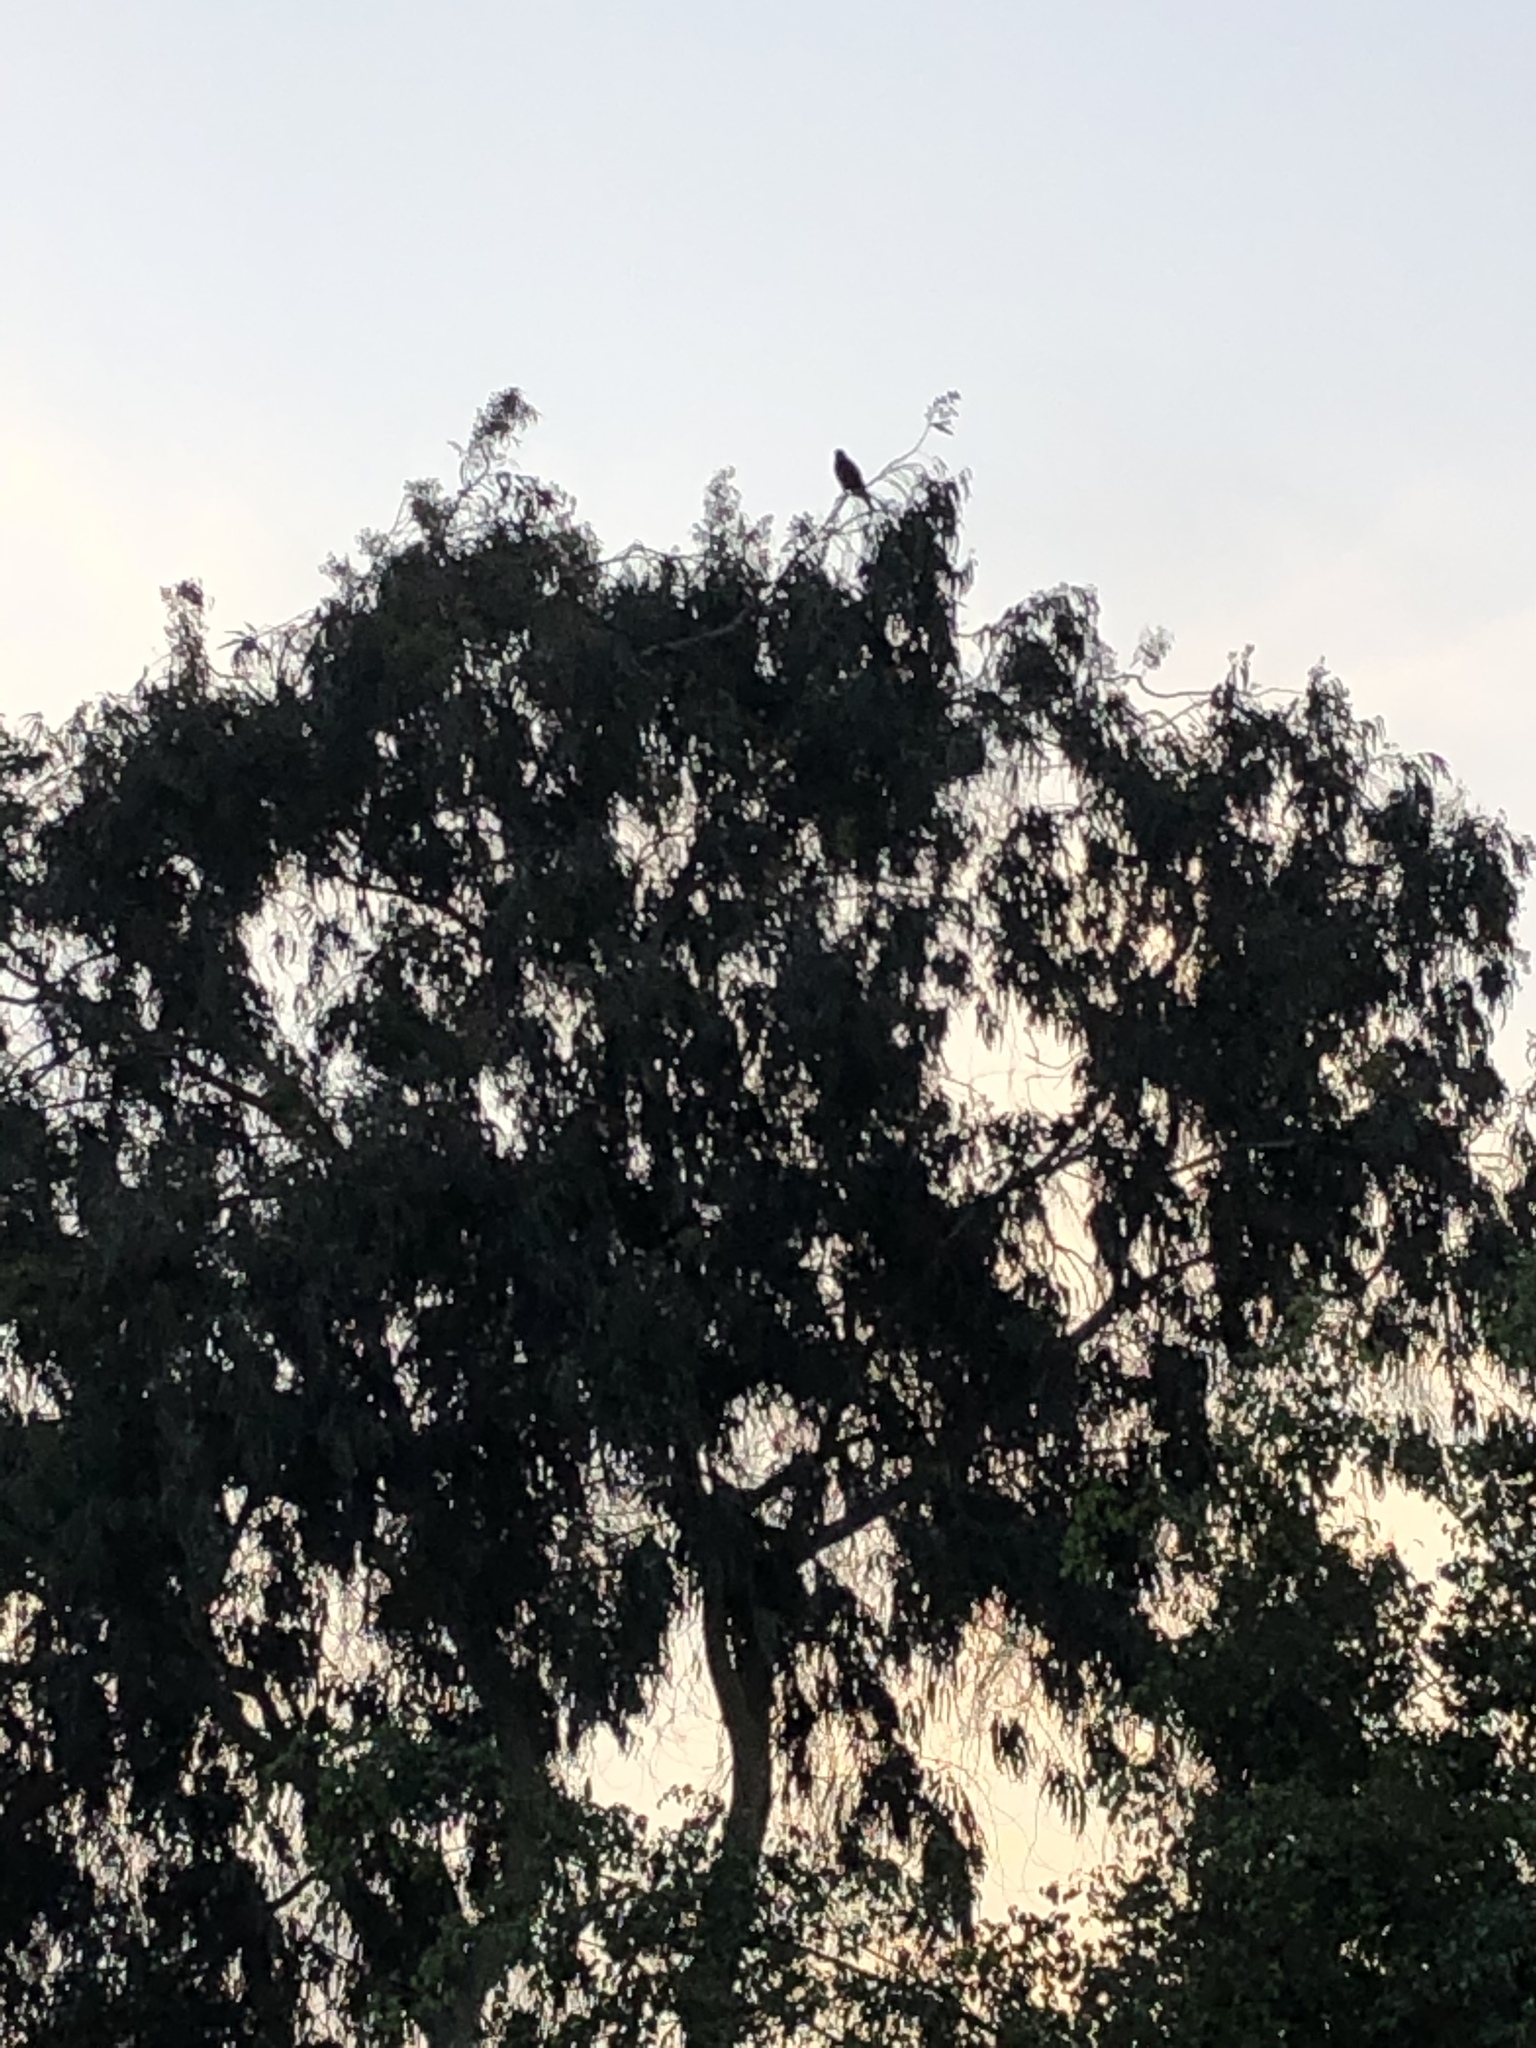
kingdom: Animalia
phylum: Chordata
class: Aves
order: Accipitriformes
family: Accipitridae
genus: Parabuteo
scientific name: Parabuteo unicinctus
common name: Harris's hawk
